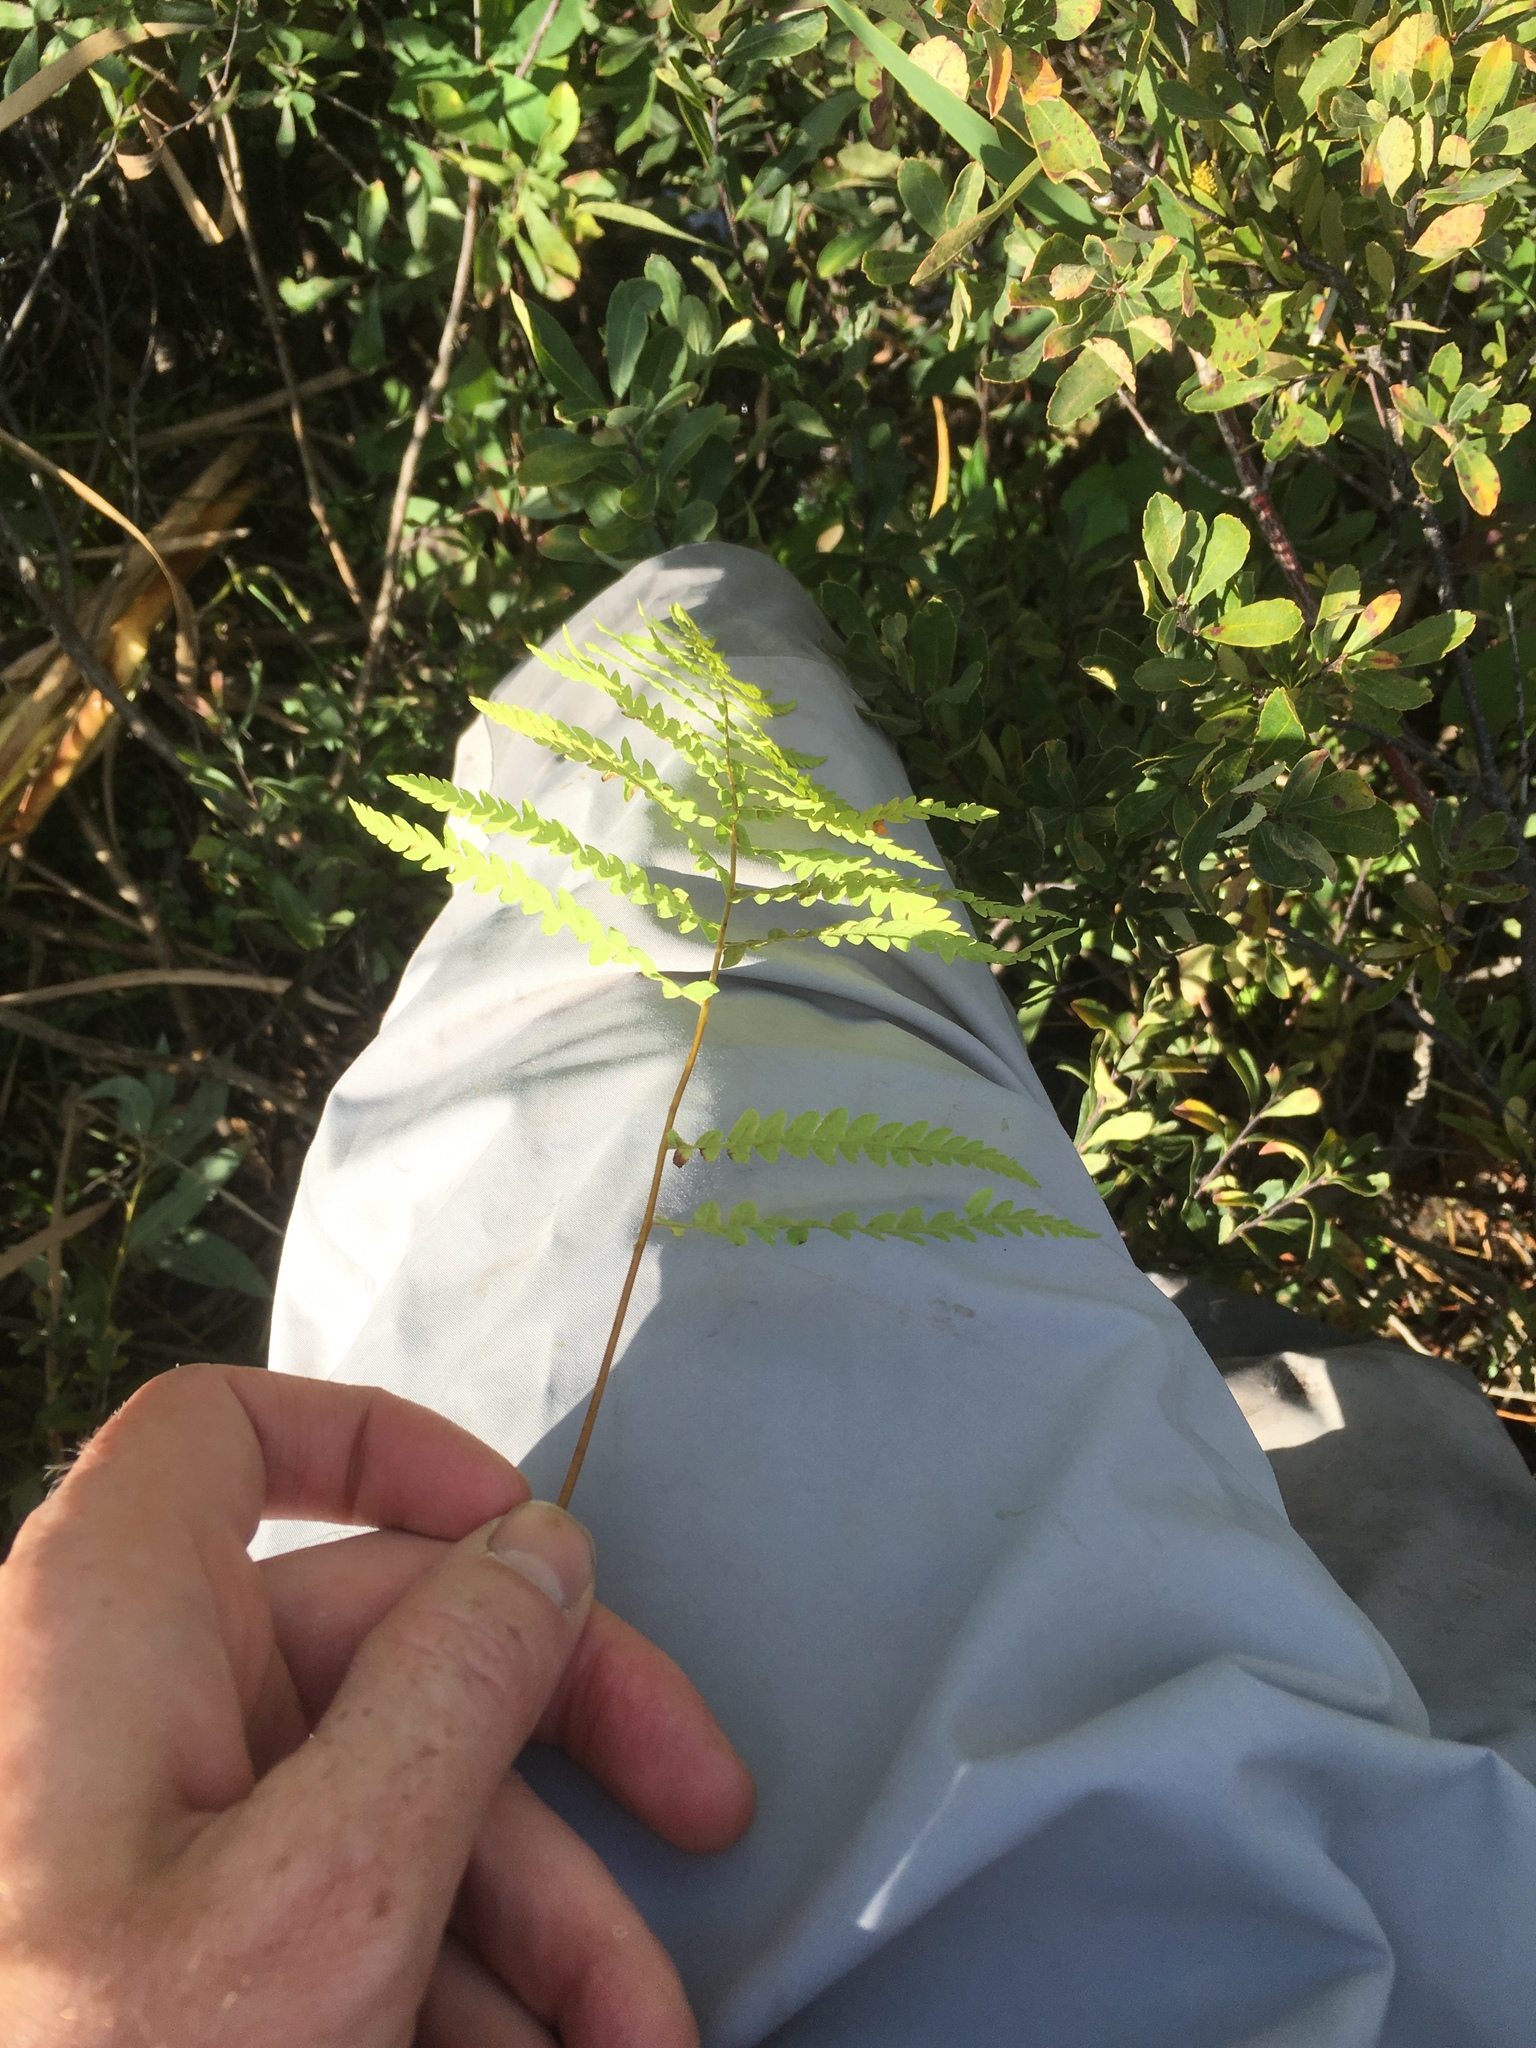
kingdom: Plantae
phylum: Tracheophyta
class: Polypodiopsida
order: Polypodiales
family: Thelypteridaceae
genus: Thelypteris
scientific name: Thelypteris palustris
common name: Marsh fern
